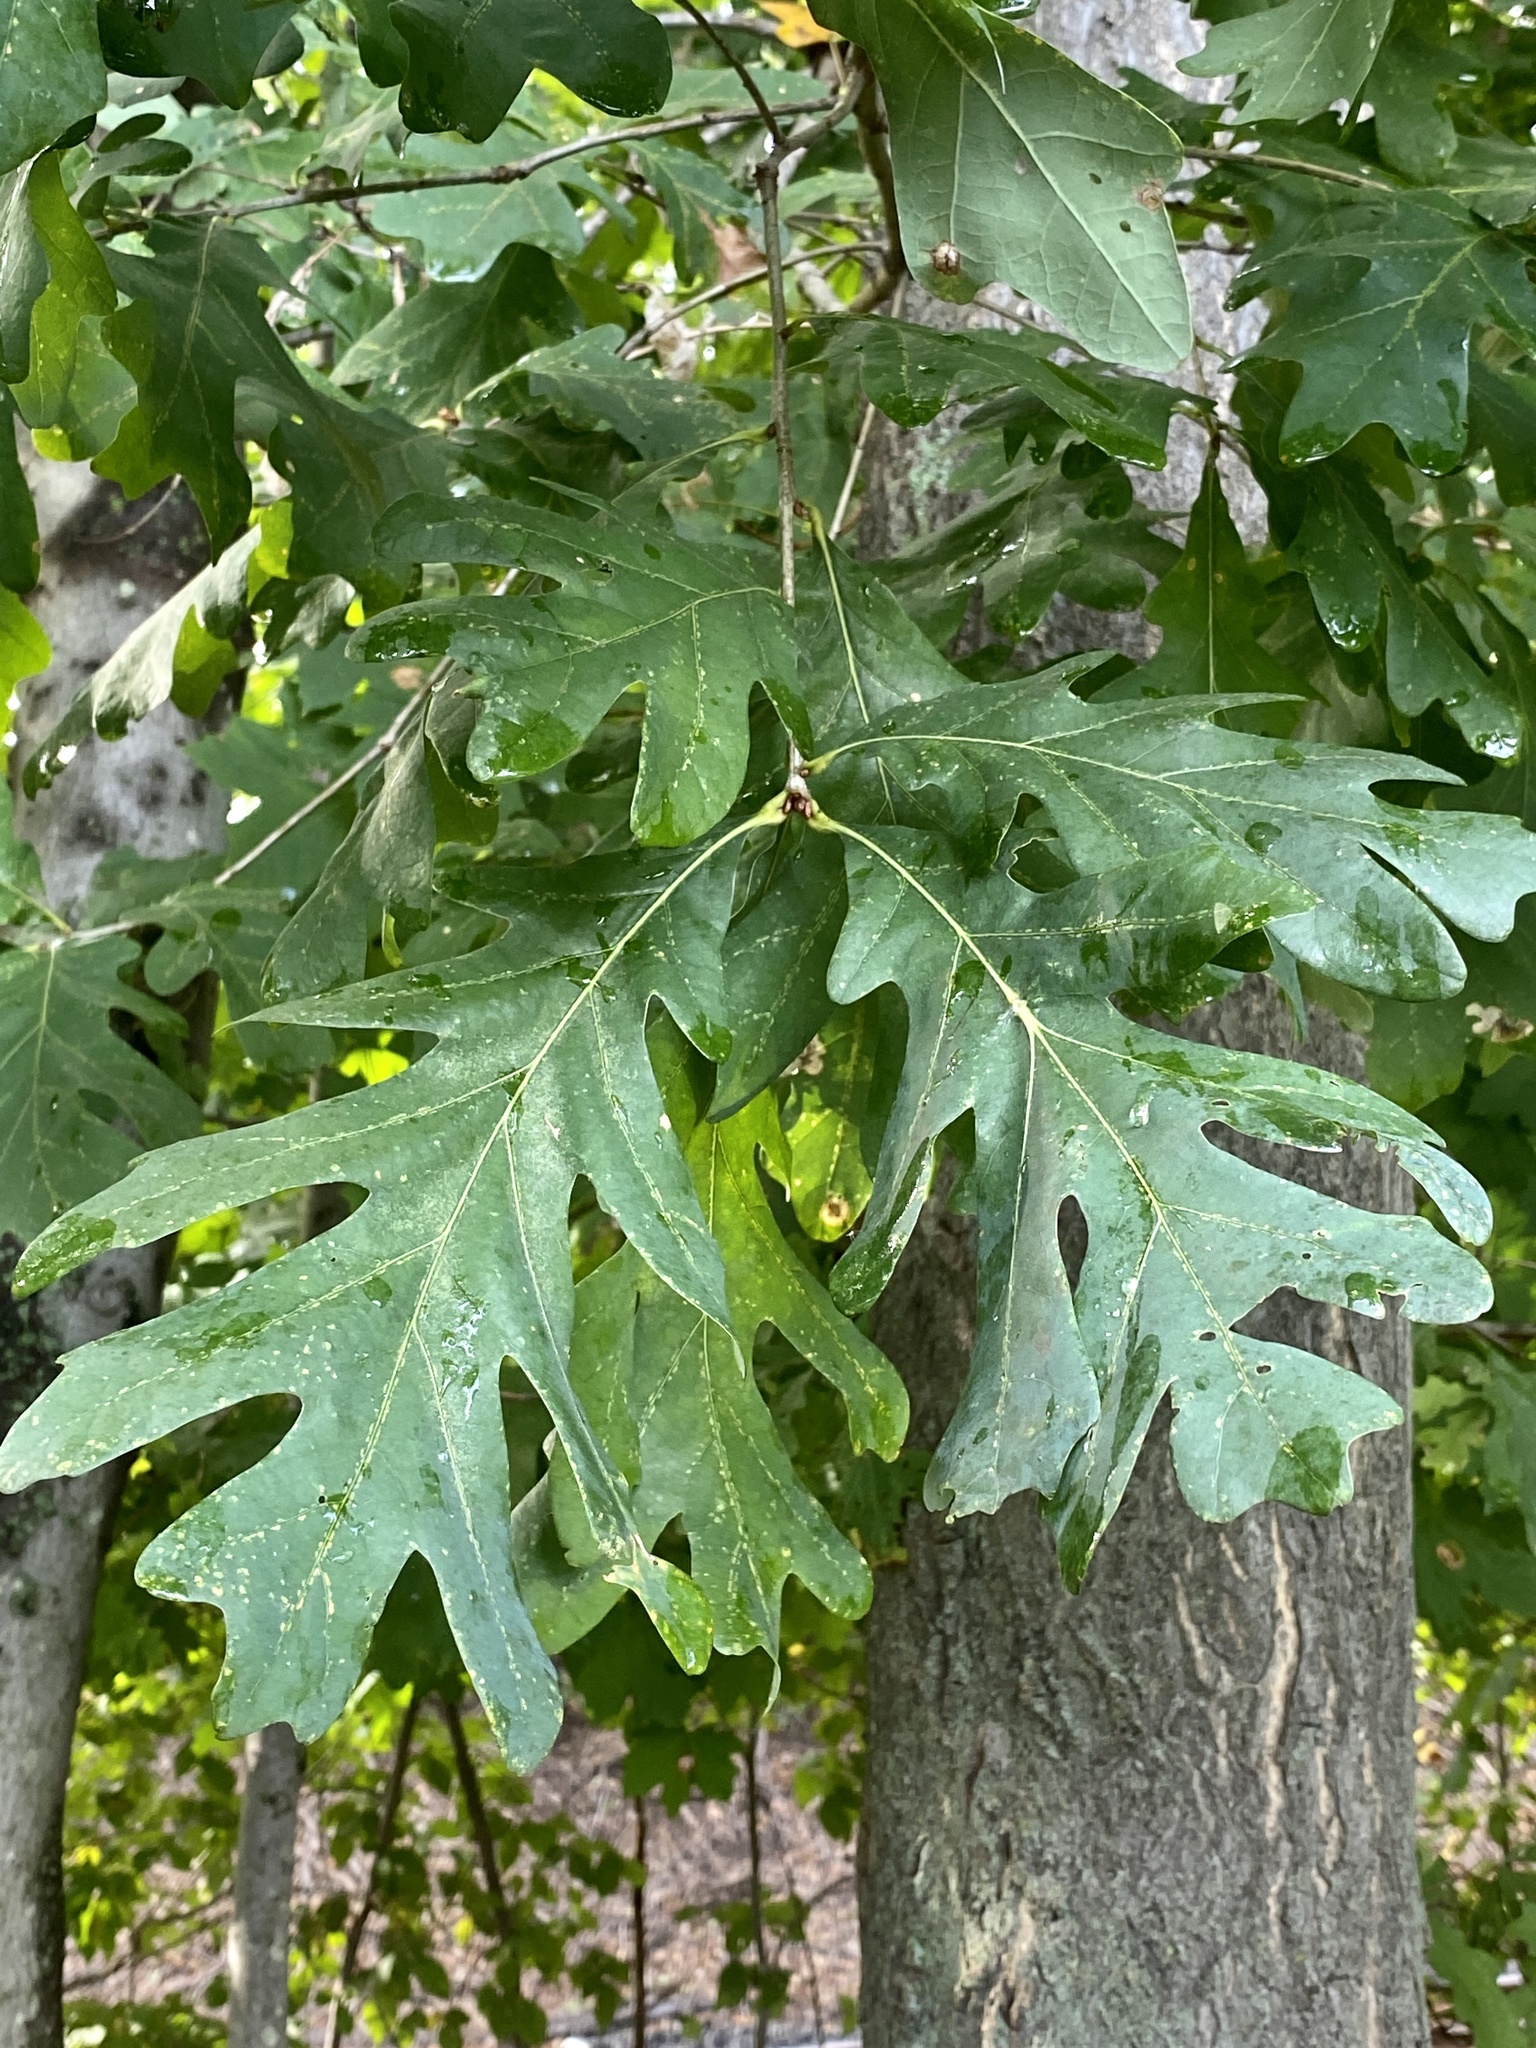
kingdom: Plantae
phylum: Tracheophyta
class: Magnoliopsida
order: Fagales
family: Fagaceae
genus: Quercus
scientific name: Quercus alba
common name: White oak
